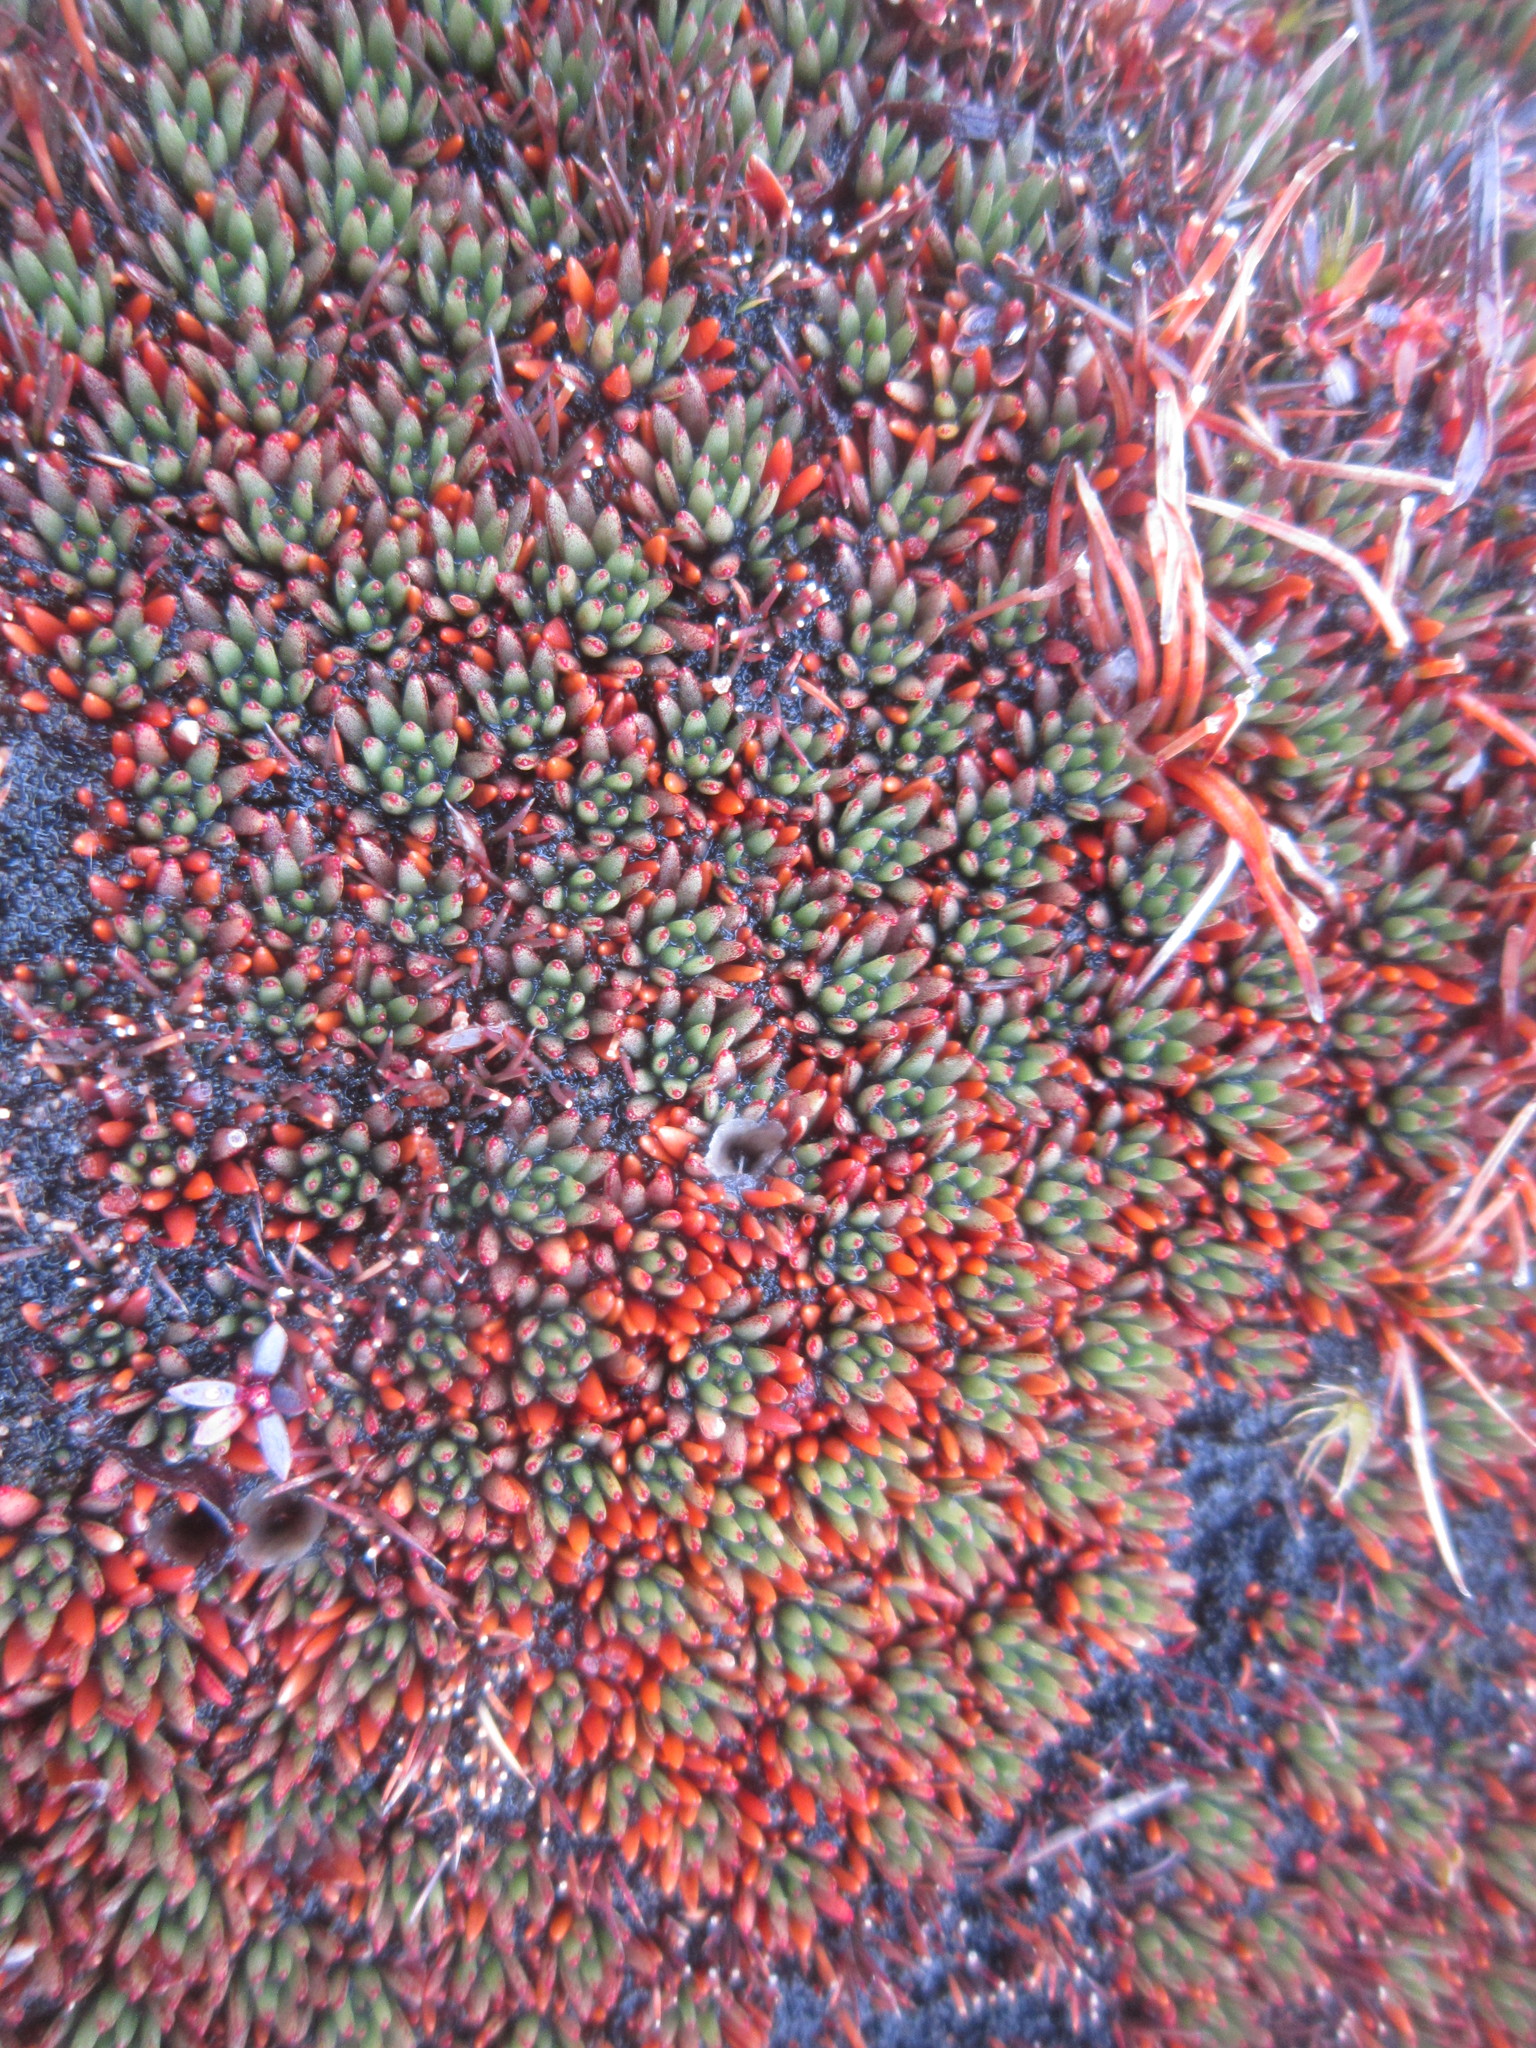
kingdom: Plantae
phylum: Tracheophyta
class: Magnoliopsida
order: Asterales
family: Stylidiaceae
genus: Donatia
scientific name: Donatia novae-zelandiae
